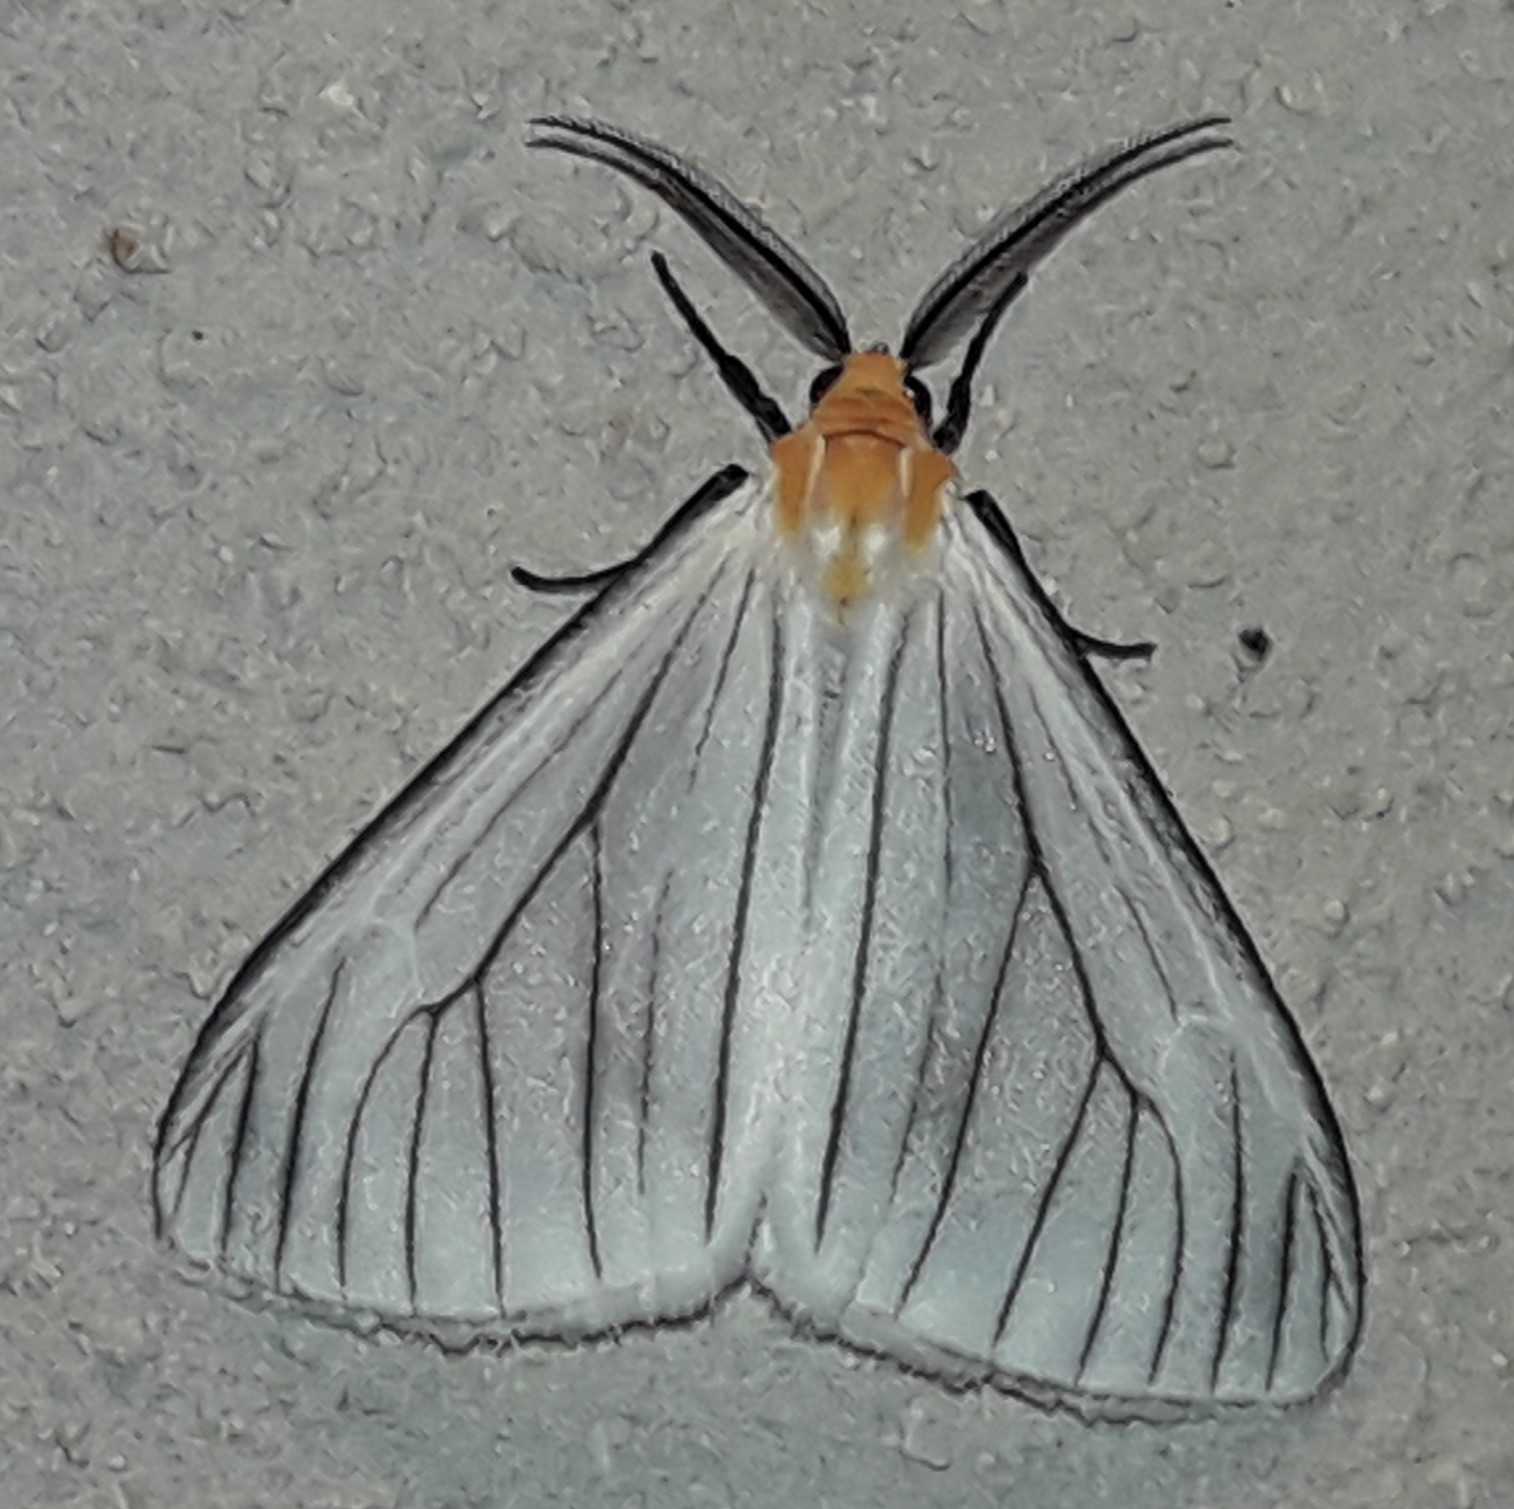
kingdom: Animalia
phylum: Arthropoda
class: Insecta
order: Lepidoptera
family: Erebidae
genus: Xenosoma
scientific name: Xenosoma nicander
